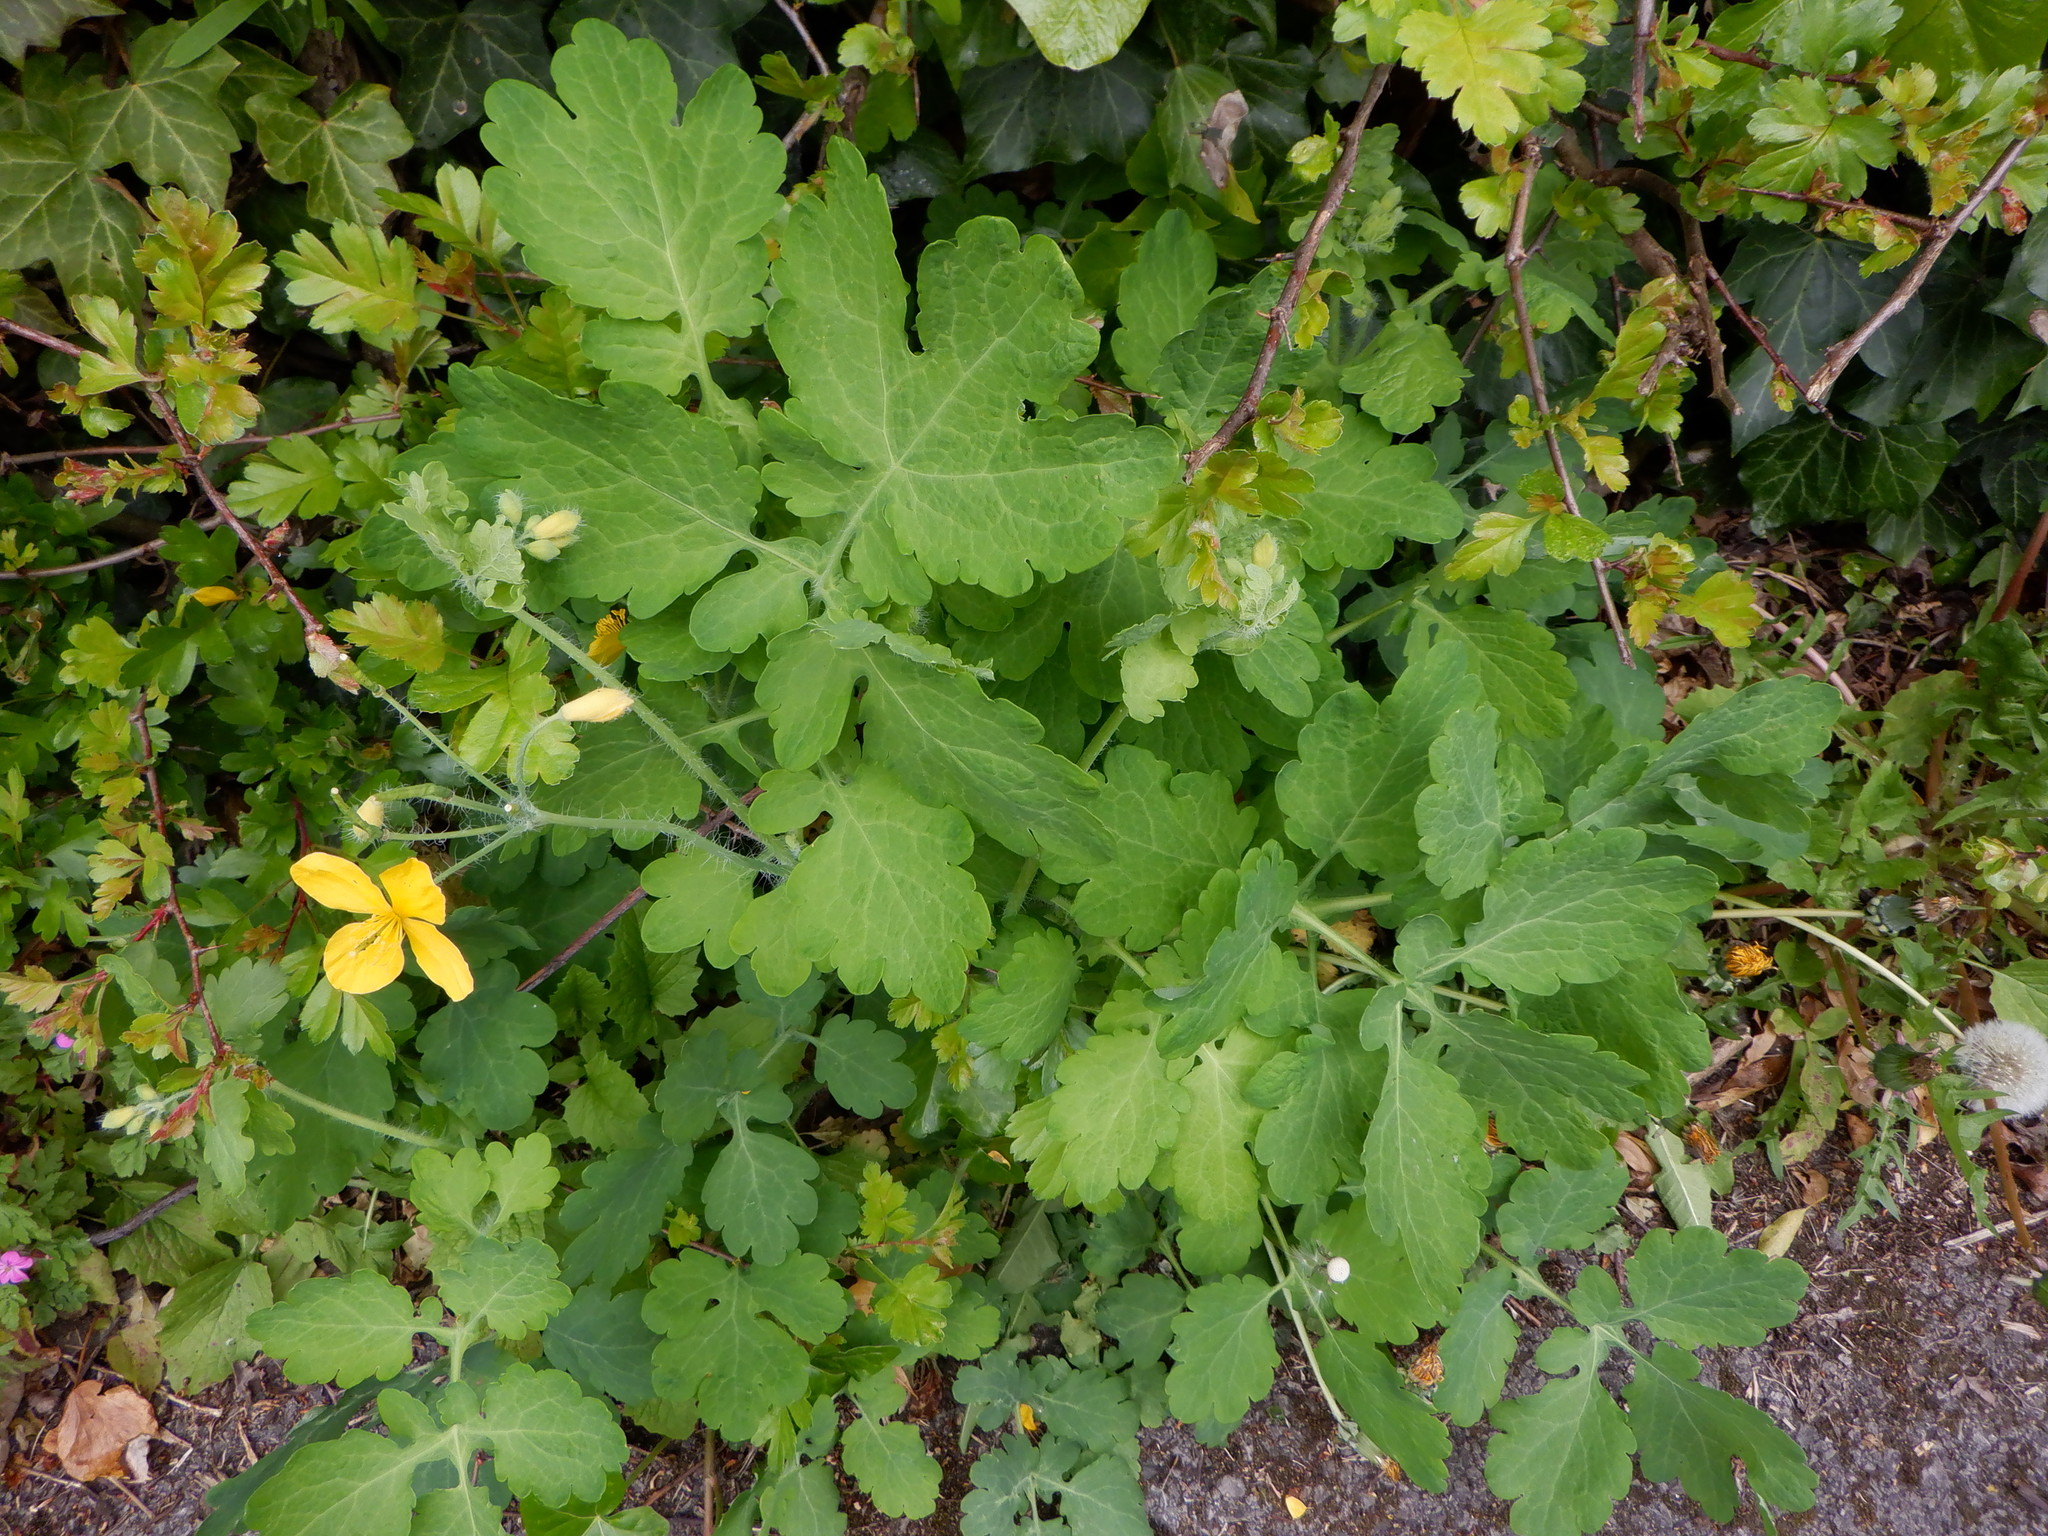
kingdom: Plantae
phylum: Tracheophyta
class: Magnoliopsida
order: Ranunculales
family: Papaveraceae
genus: Chelidonium
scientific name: Chelidonium majus
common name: Greater celandine
